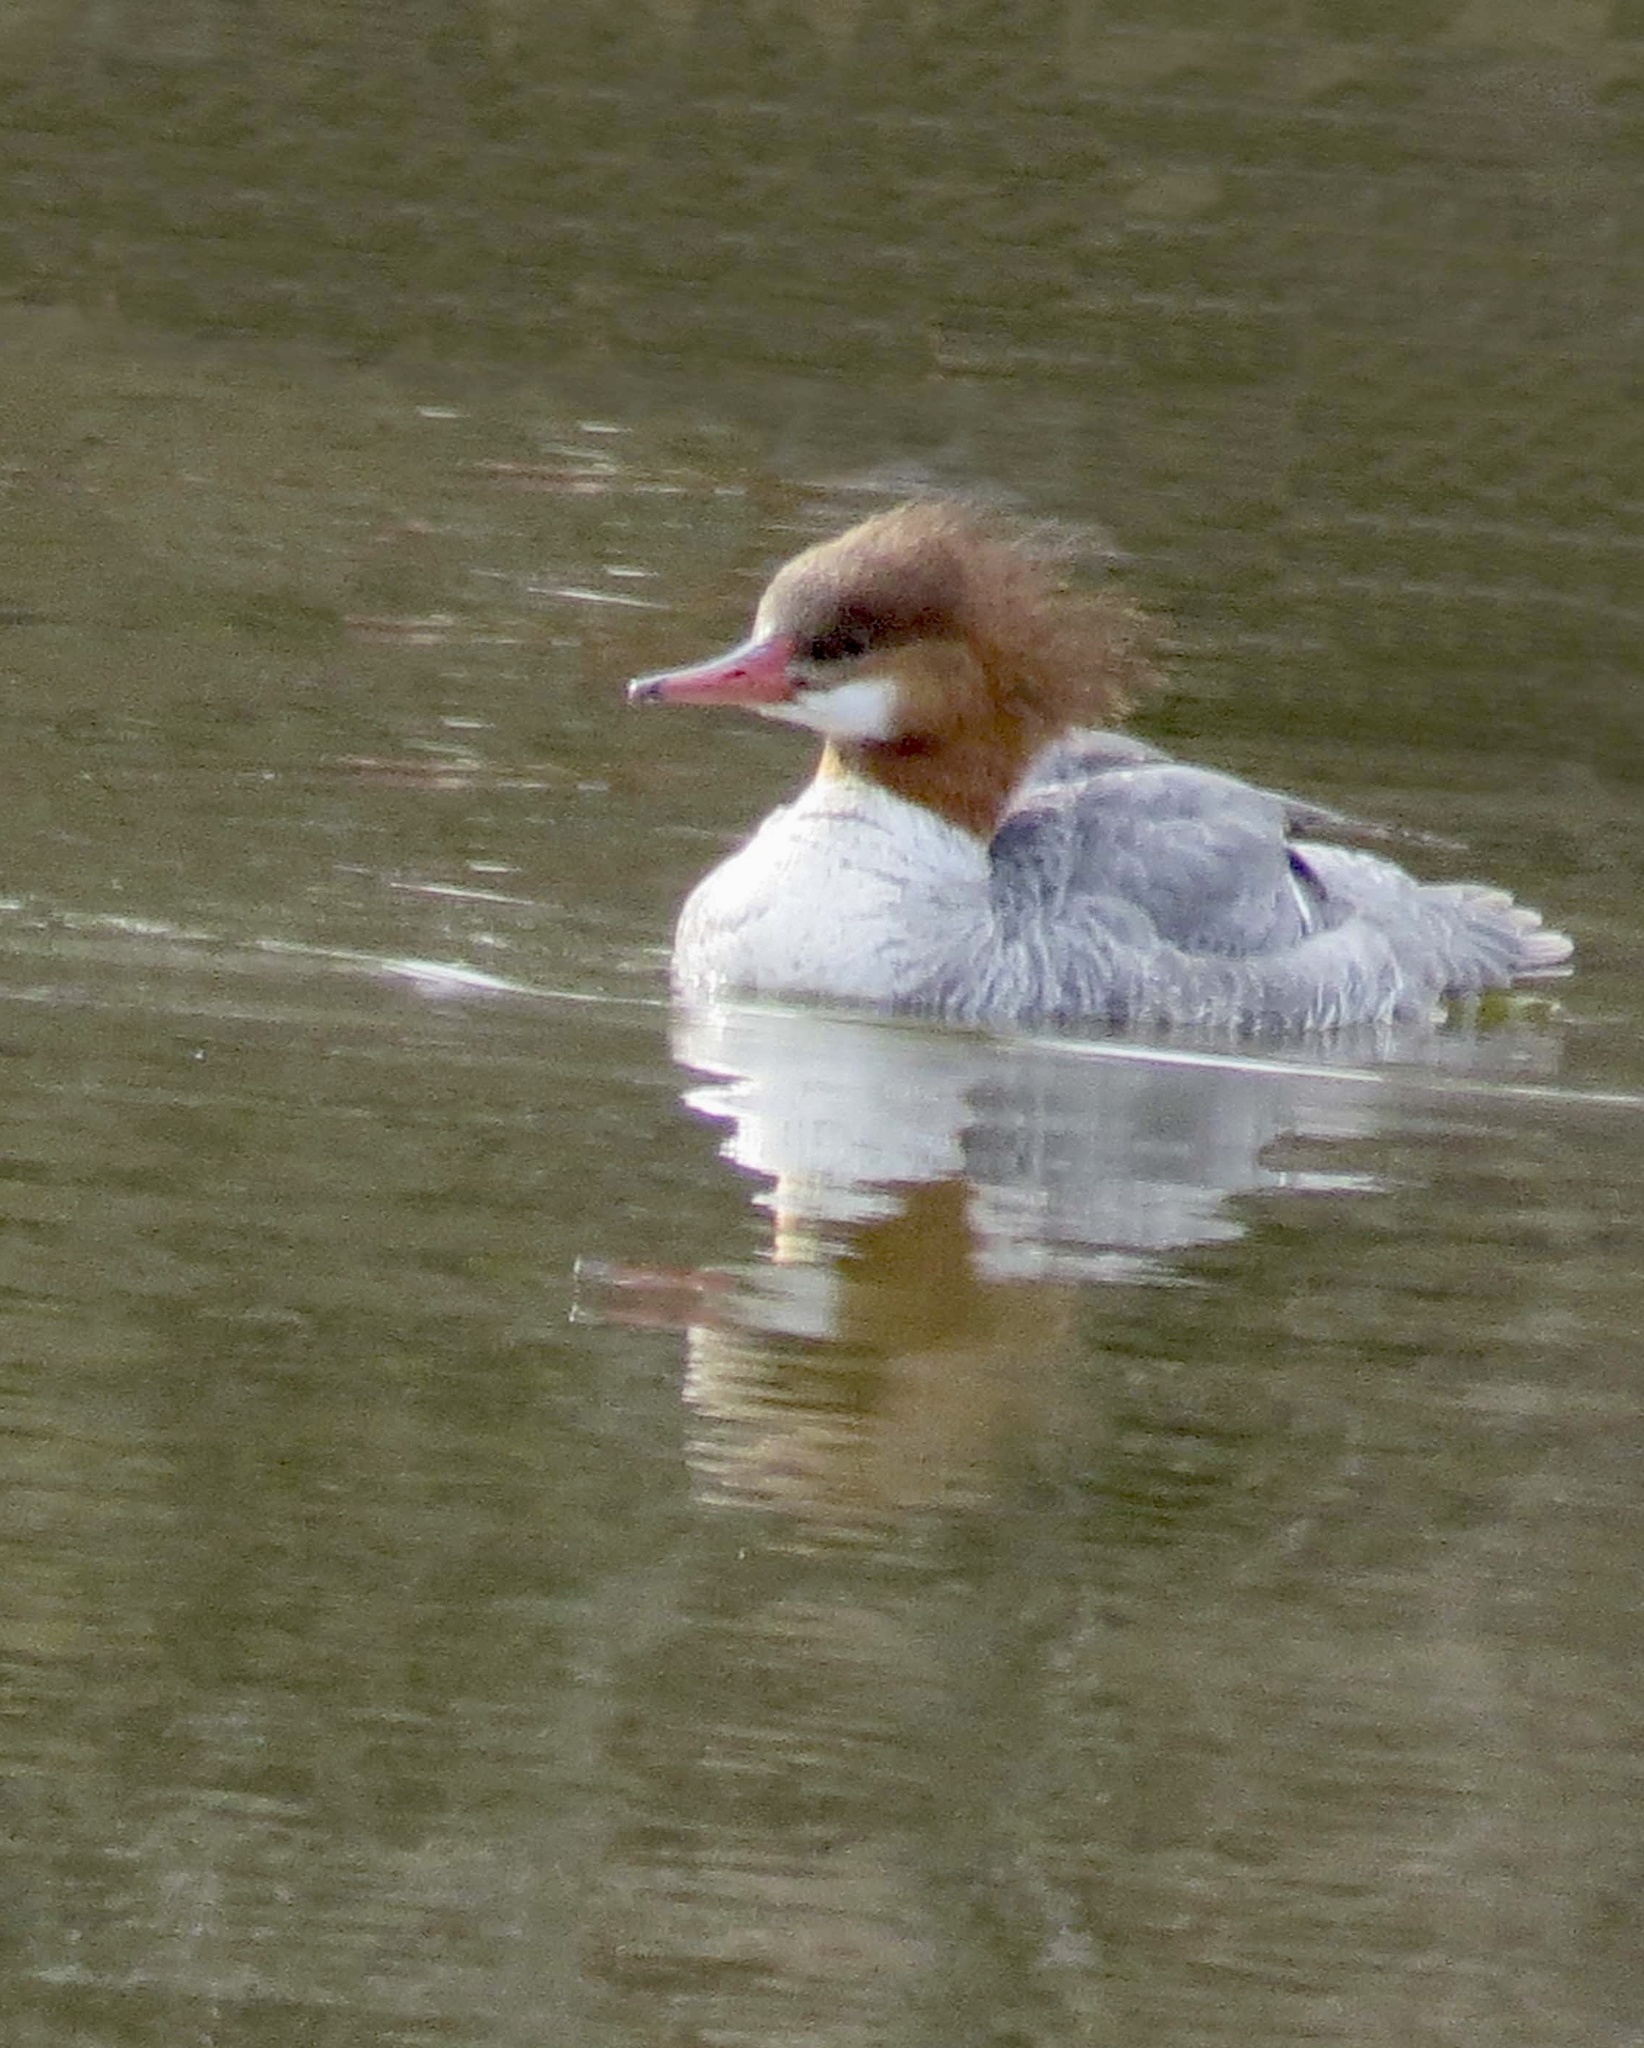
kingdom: Animalia
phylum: Chordata
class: Aves
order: Anseriformes
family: Anatidae
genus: Mergus
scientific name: Mergus merganser
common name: Common merganser
